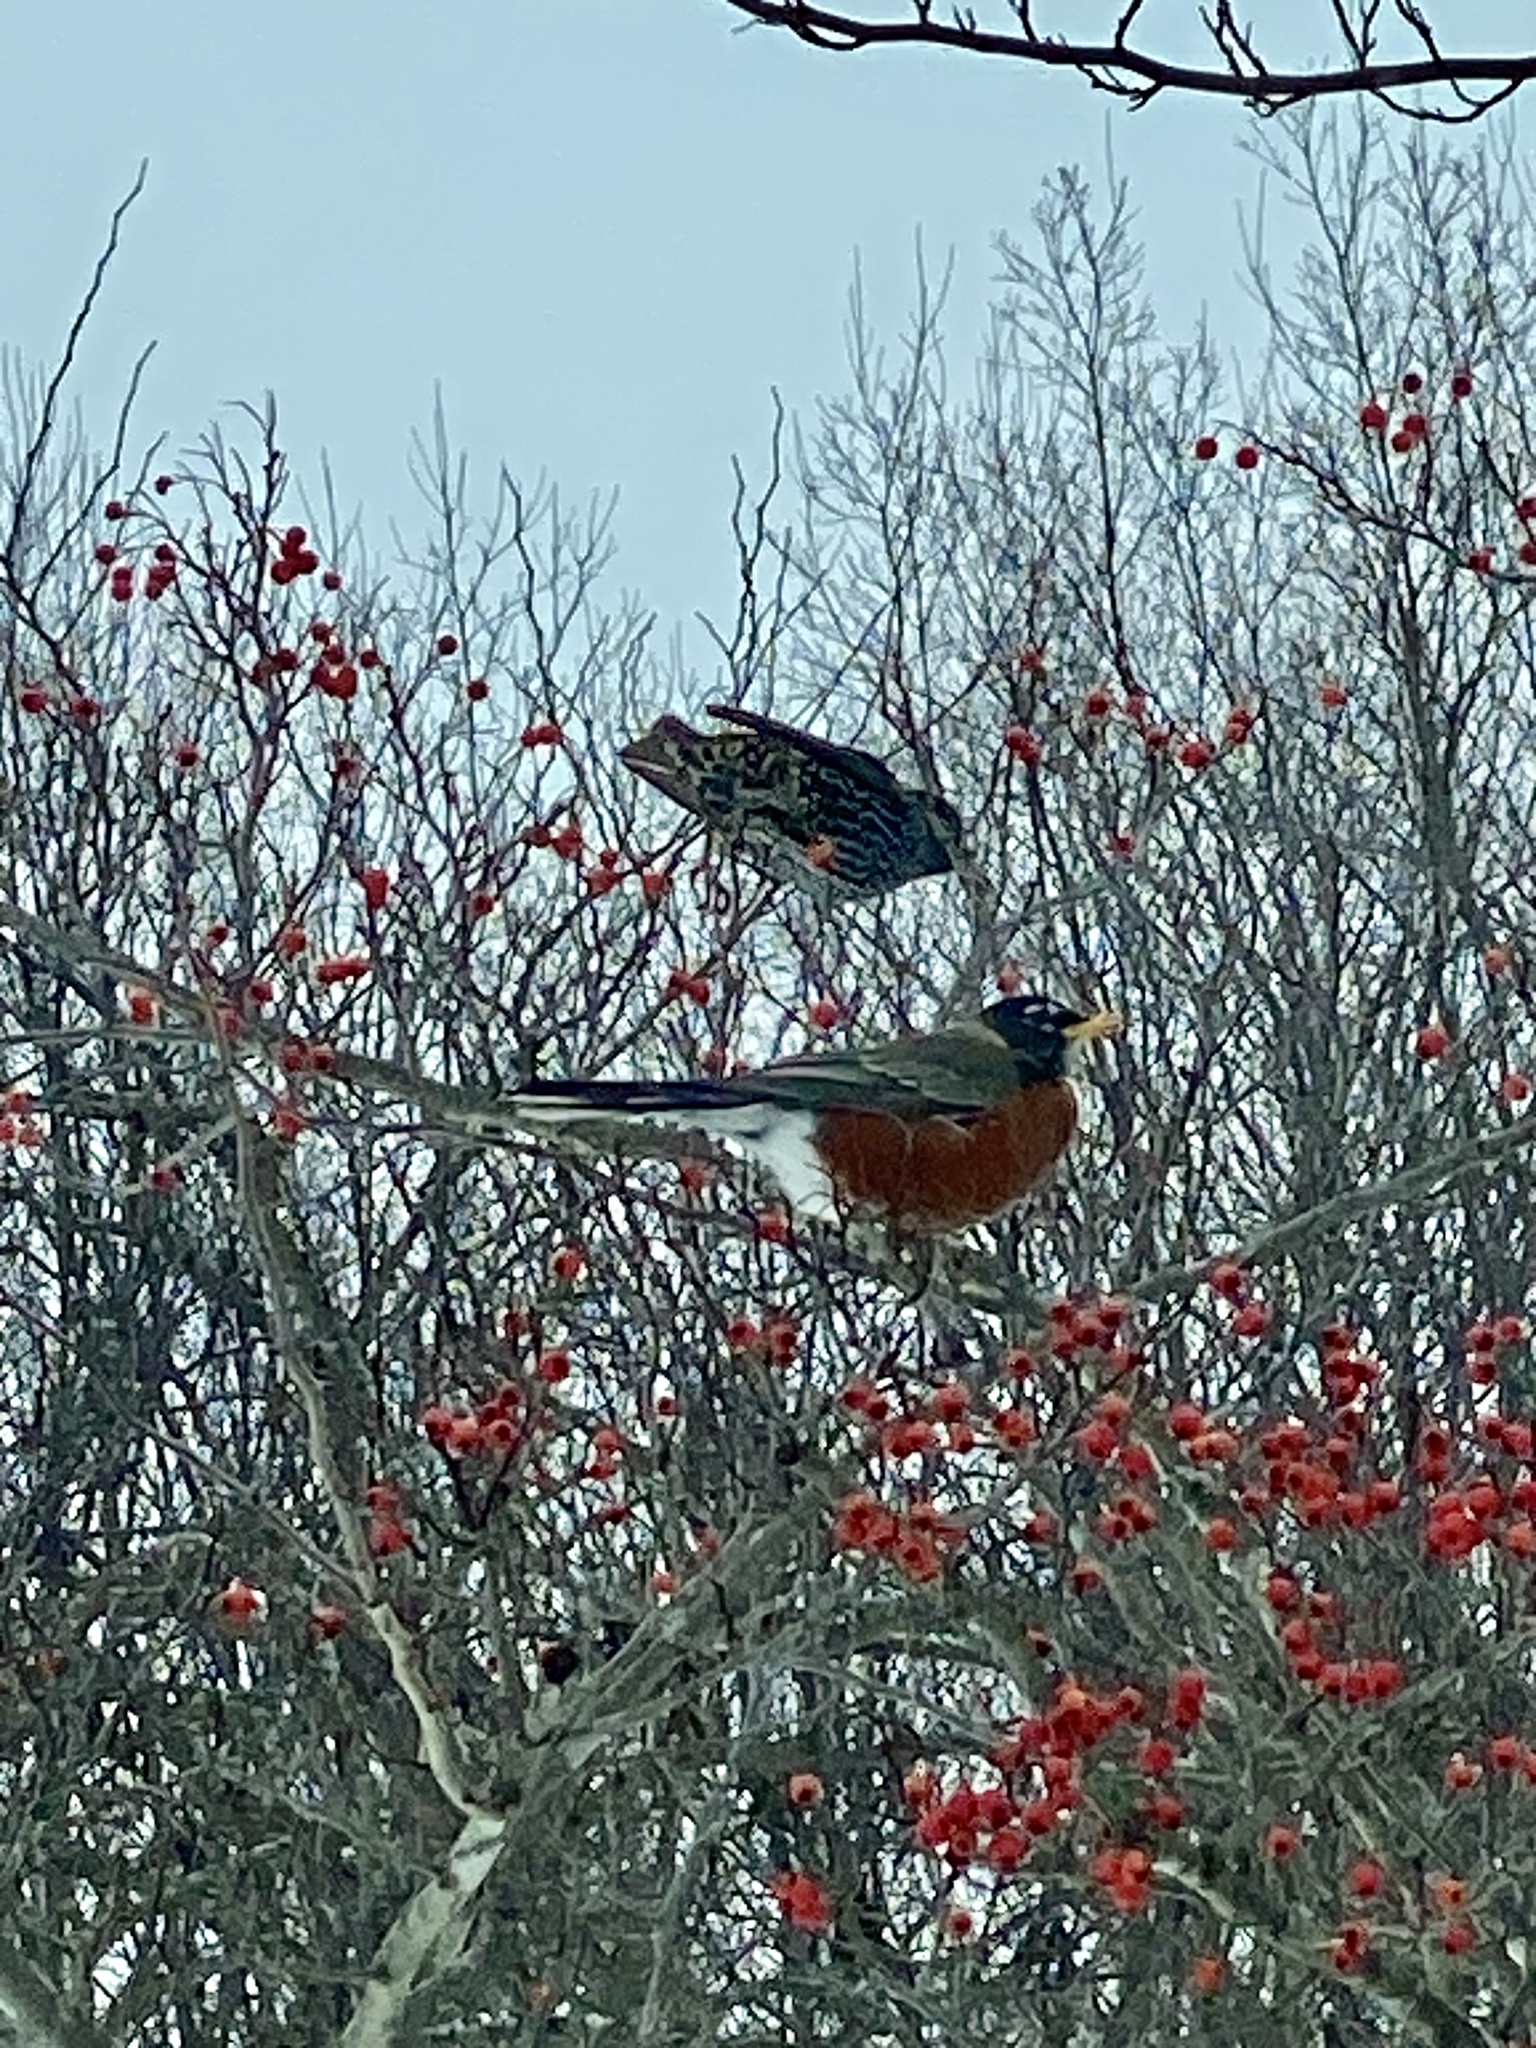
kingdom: Animalia
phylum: Chordata
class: Aves
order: Passeriformes
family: Sturnidae
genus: Sturnus
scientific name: Sturnus vulgaris
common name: Common starling
